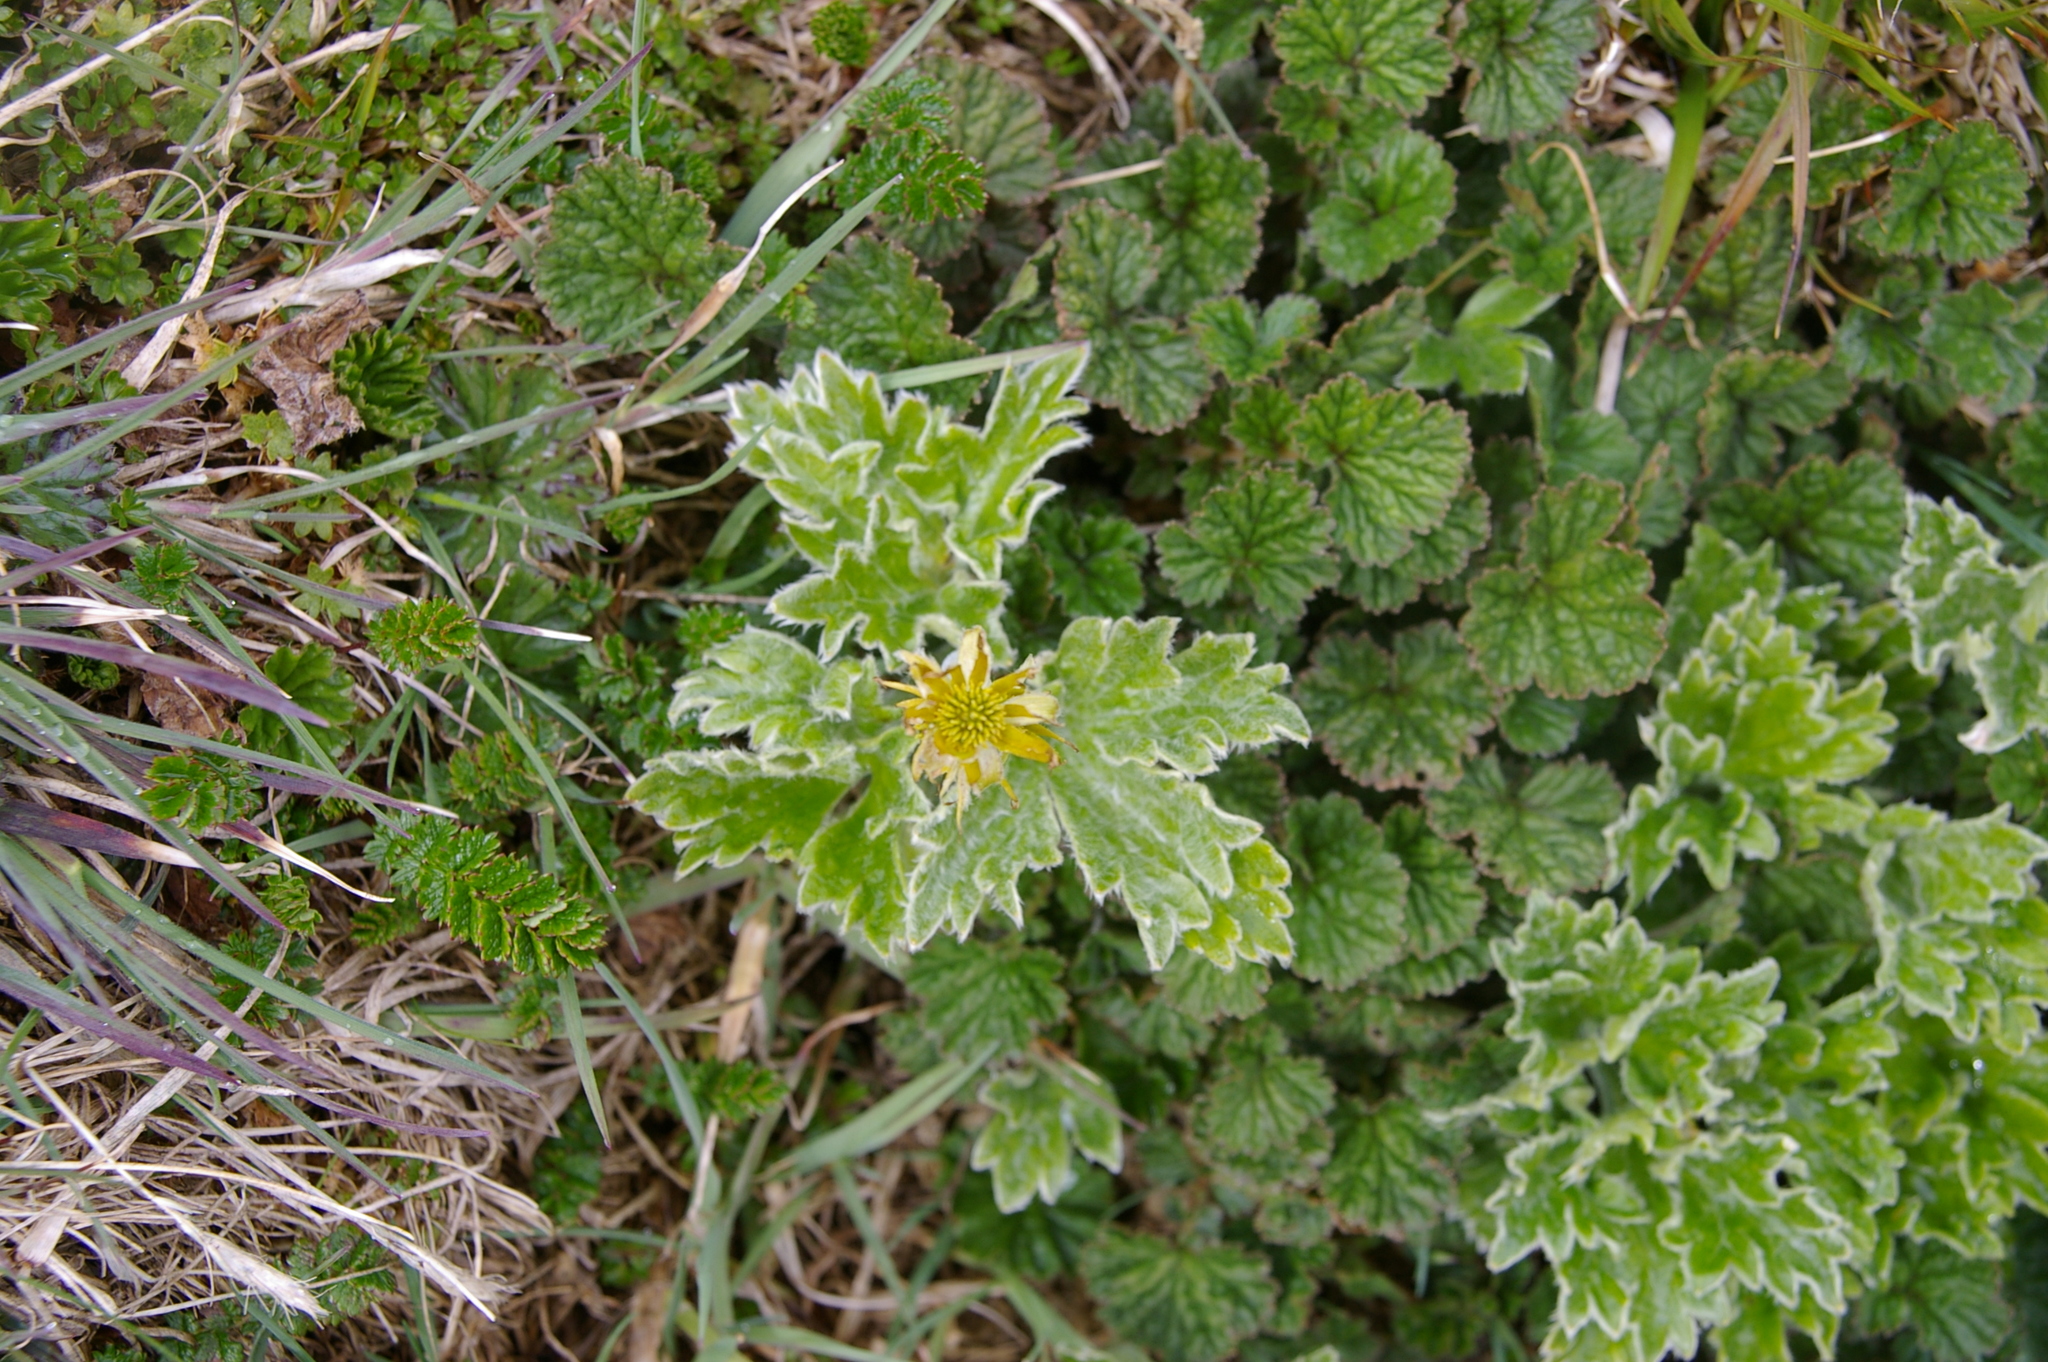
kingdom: Plantae
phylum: Tracheophyta
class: Magnoliopsida
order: Ranunculales
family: Ranunculaceae
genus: Hamadryas
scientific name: Hamadryas magellanica
